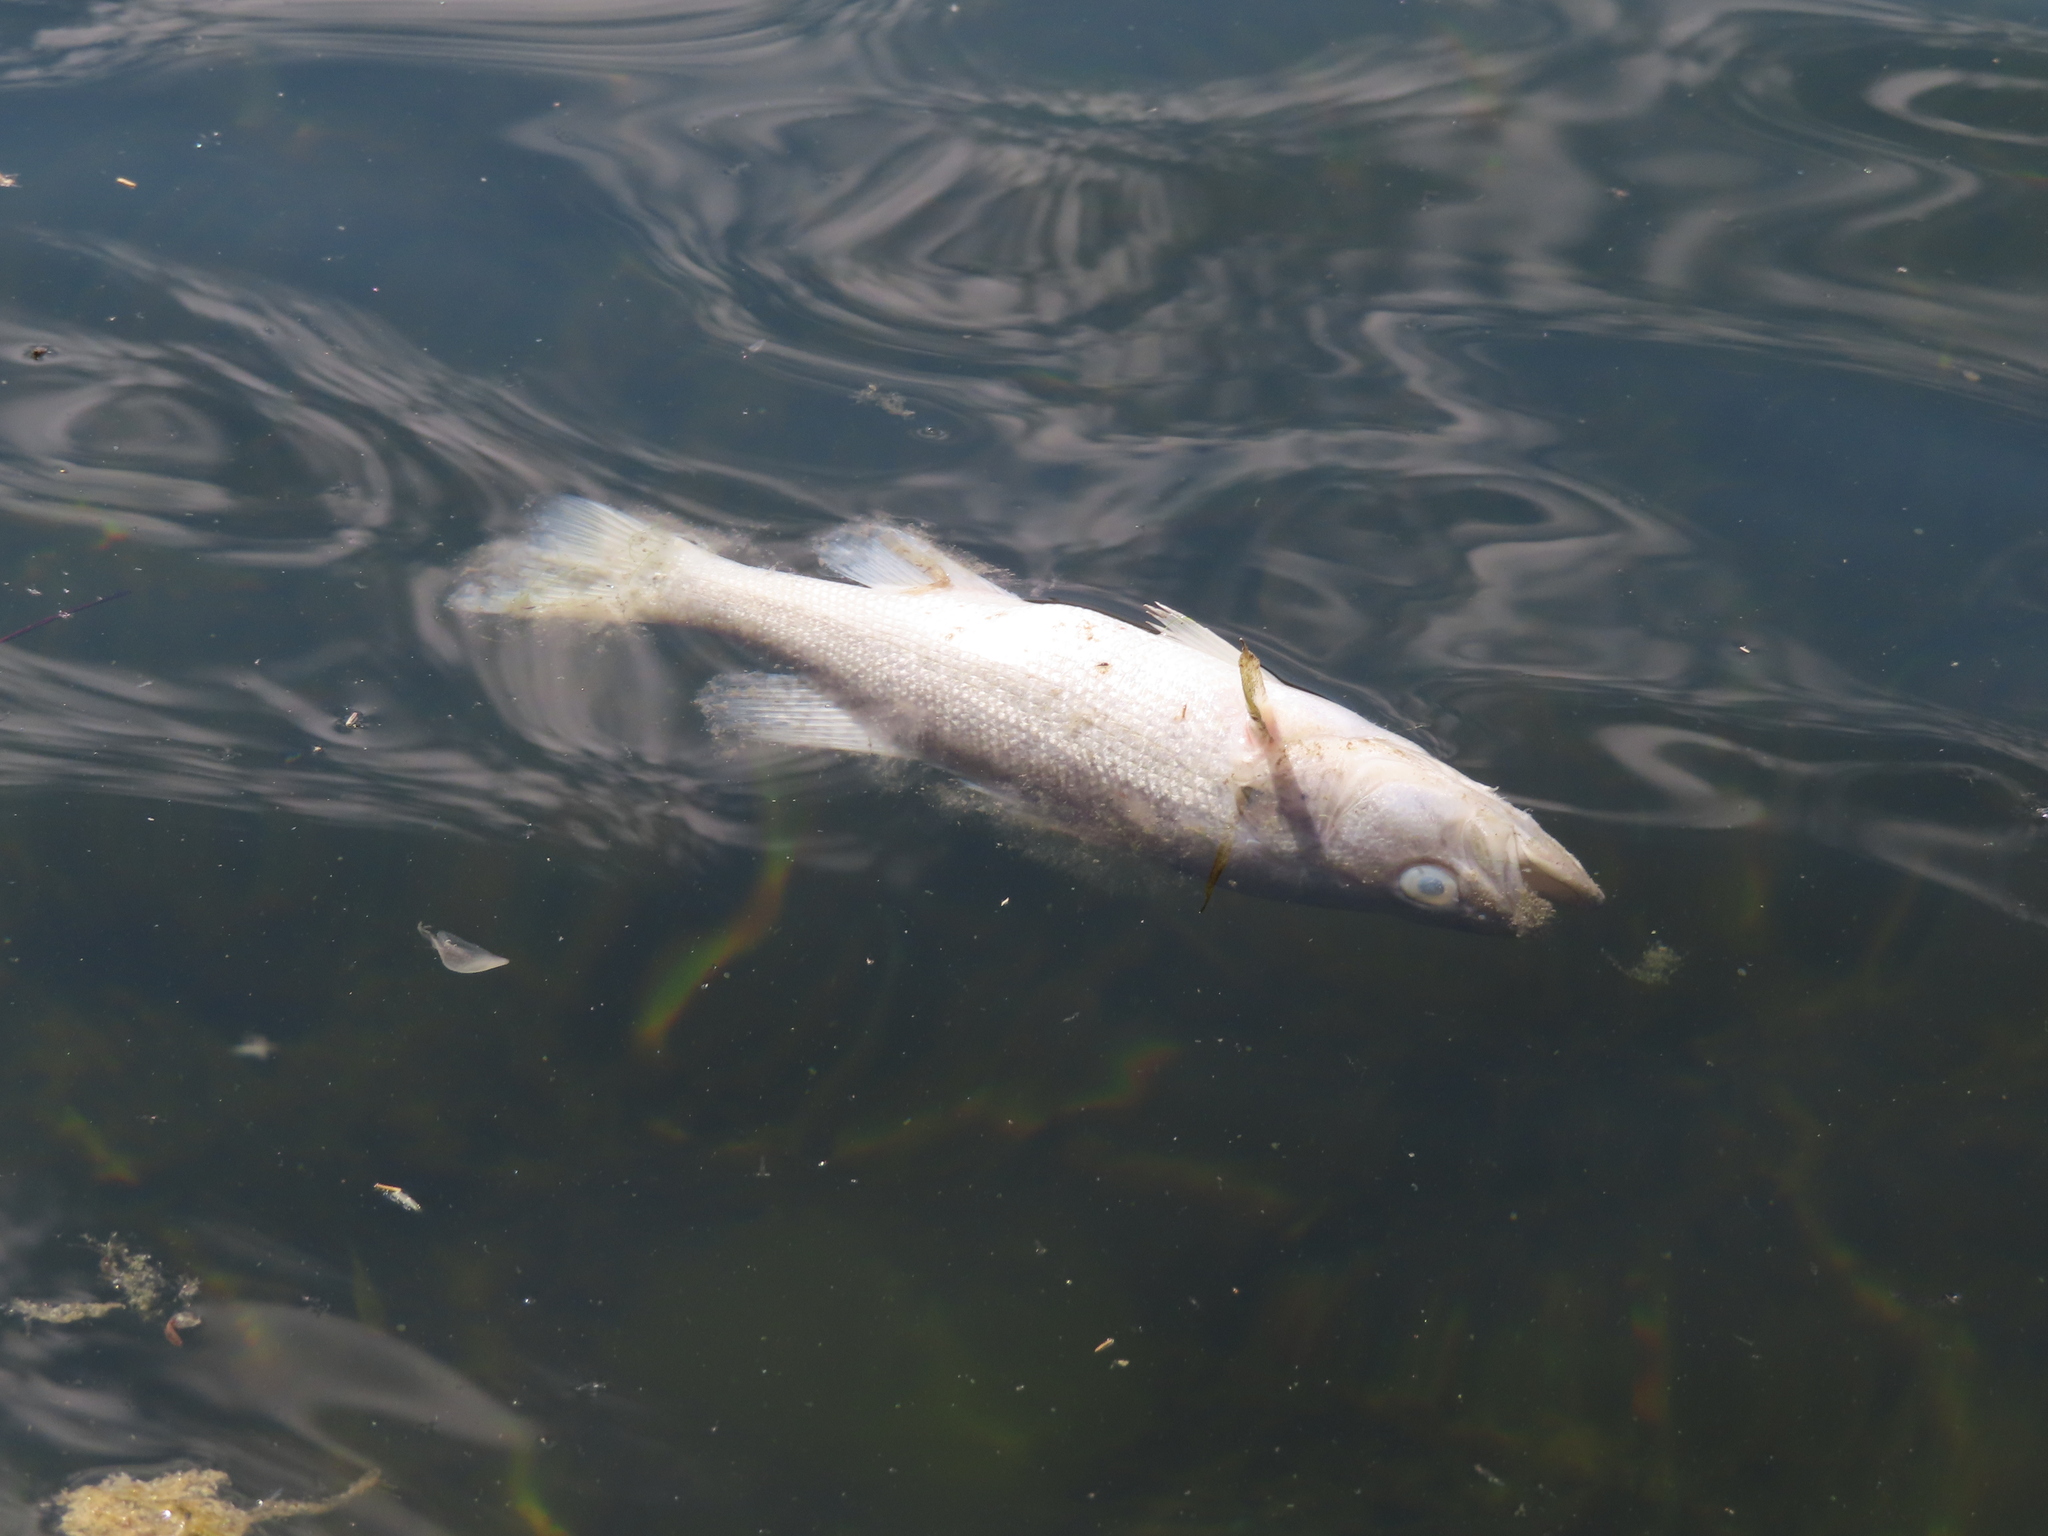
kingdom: Animalia
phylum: Chordata
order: Perciformes
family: Centrarchidae
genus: Micropterus
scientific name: Micropterus
